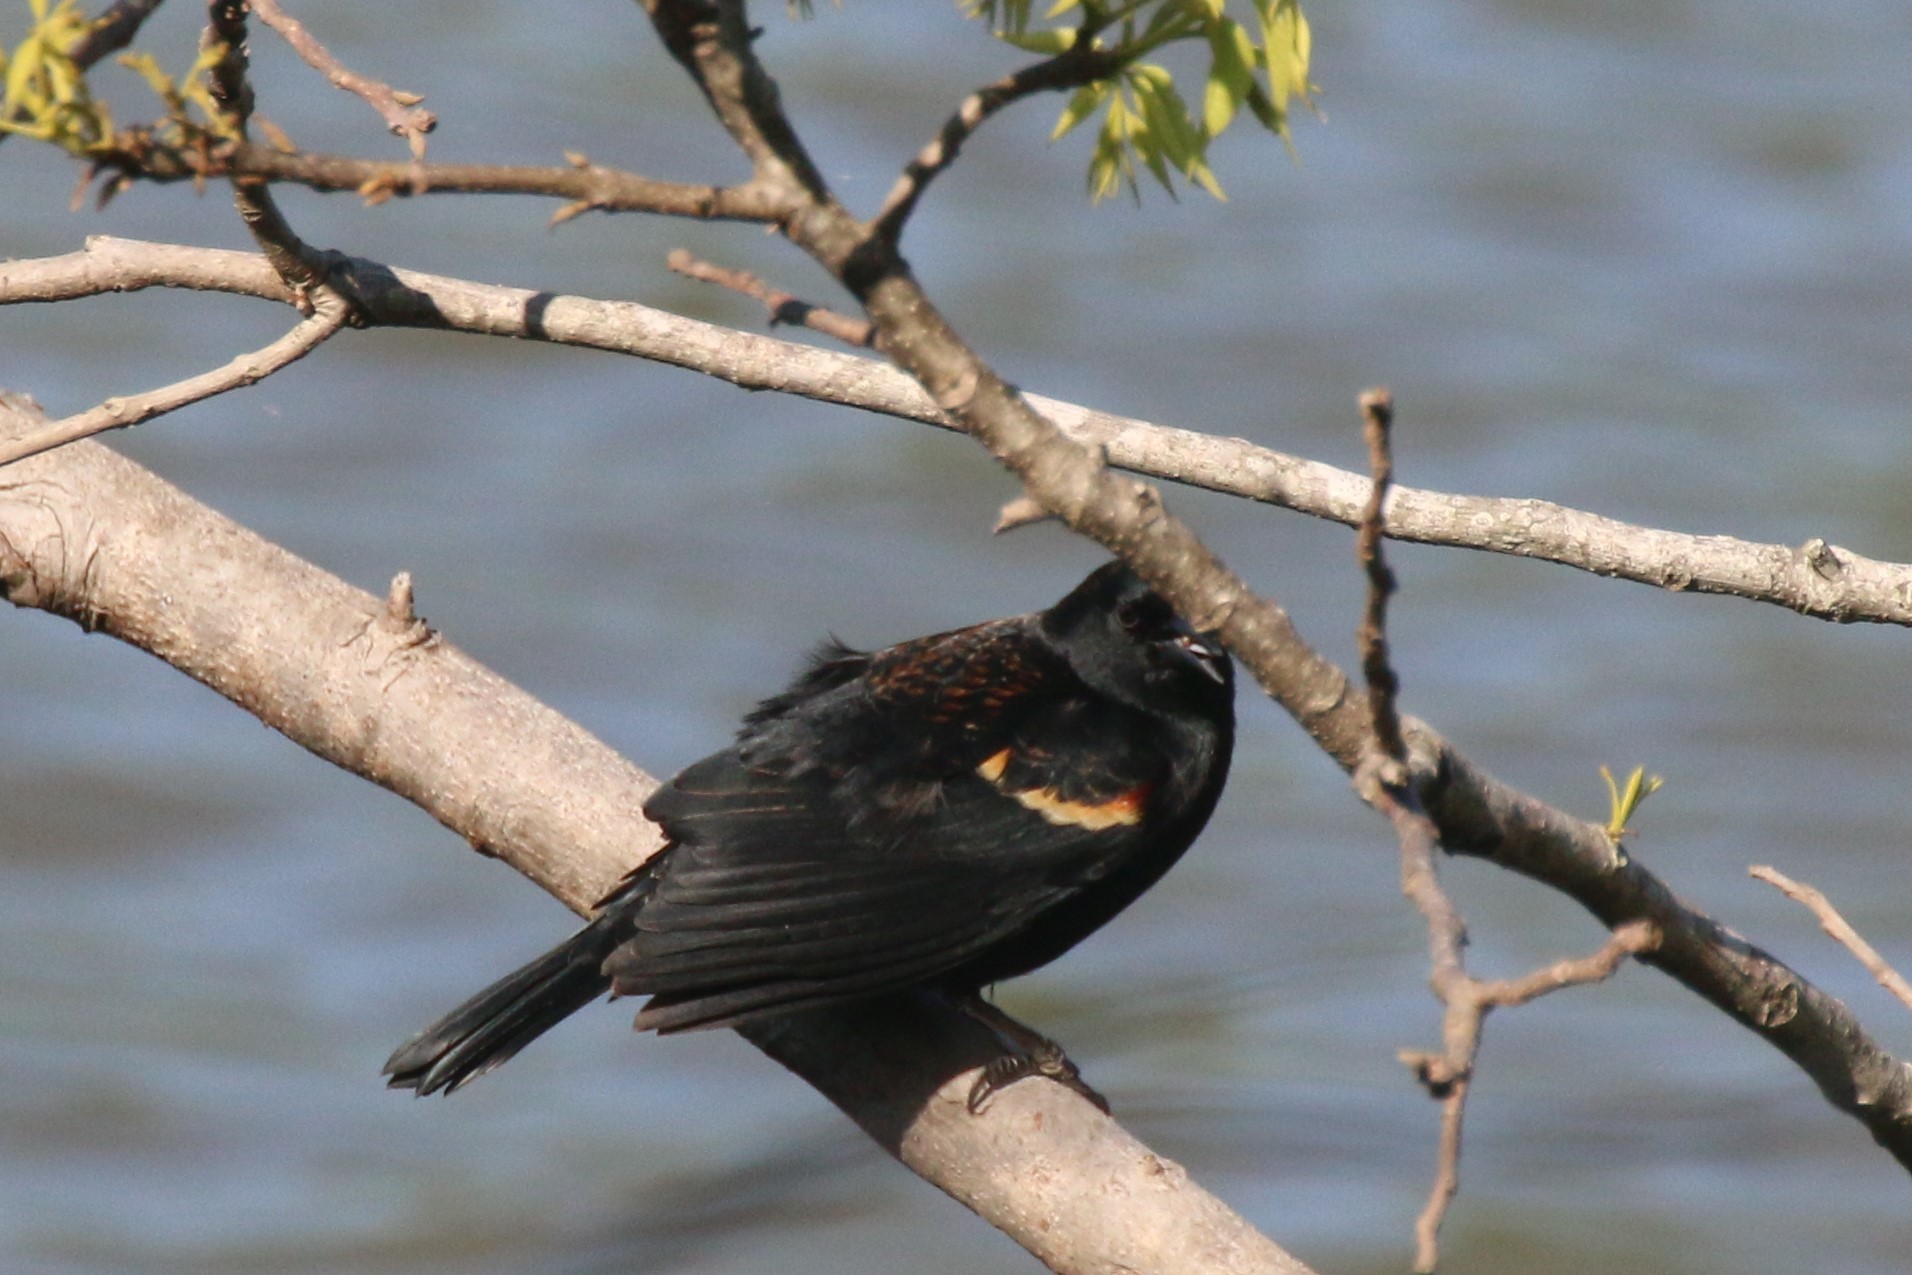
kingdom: Animalia
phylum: Chordata
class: Aves
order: Passeriformes
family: Icteridae
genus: Agelaius
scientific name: Agelaius phoeniceus
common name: Red-winged blackbird
